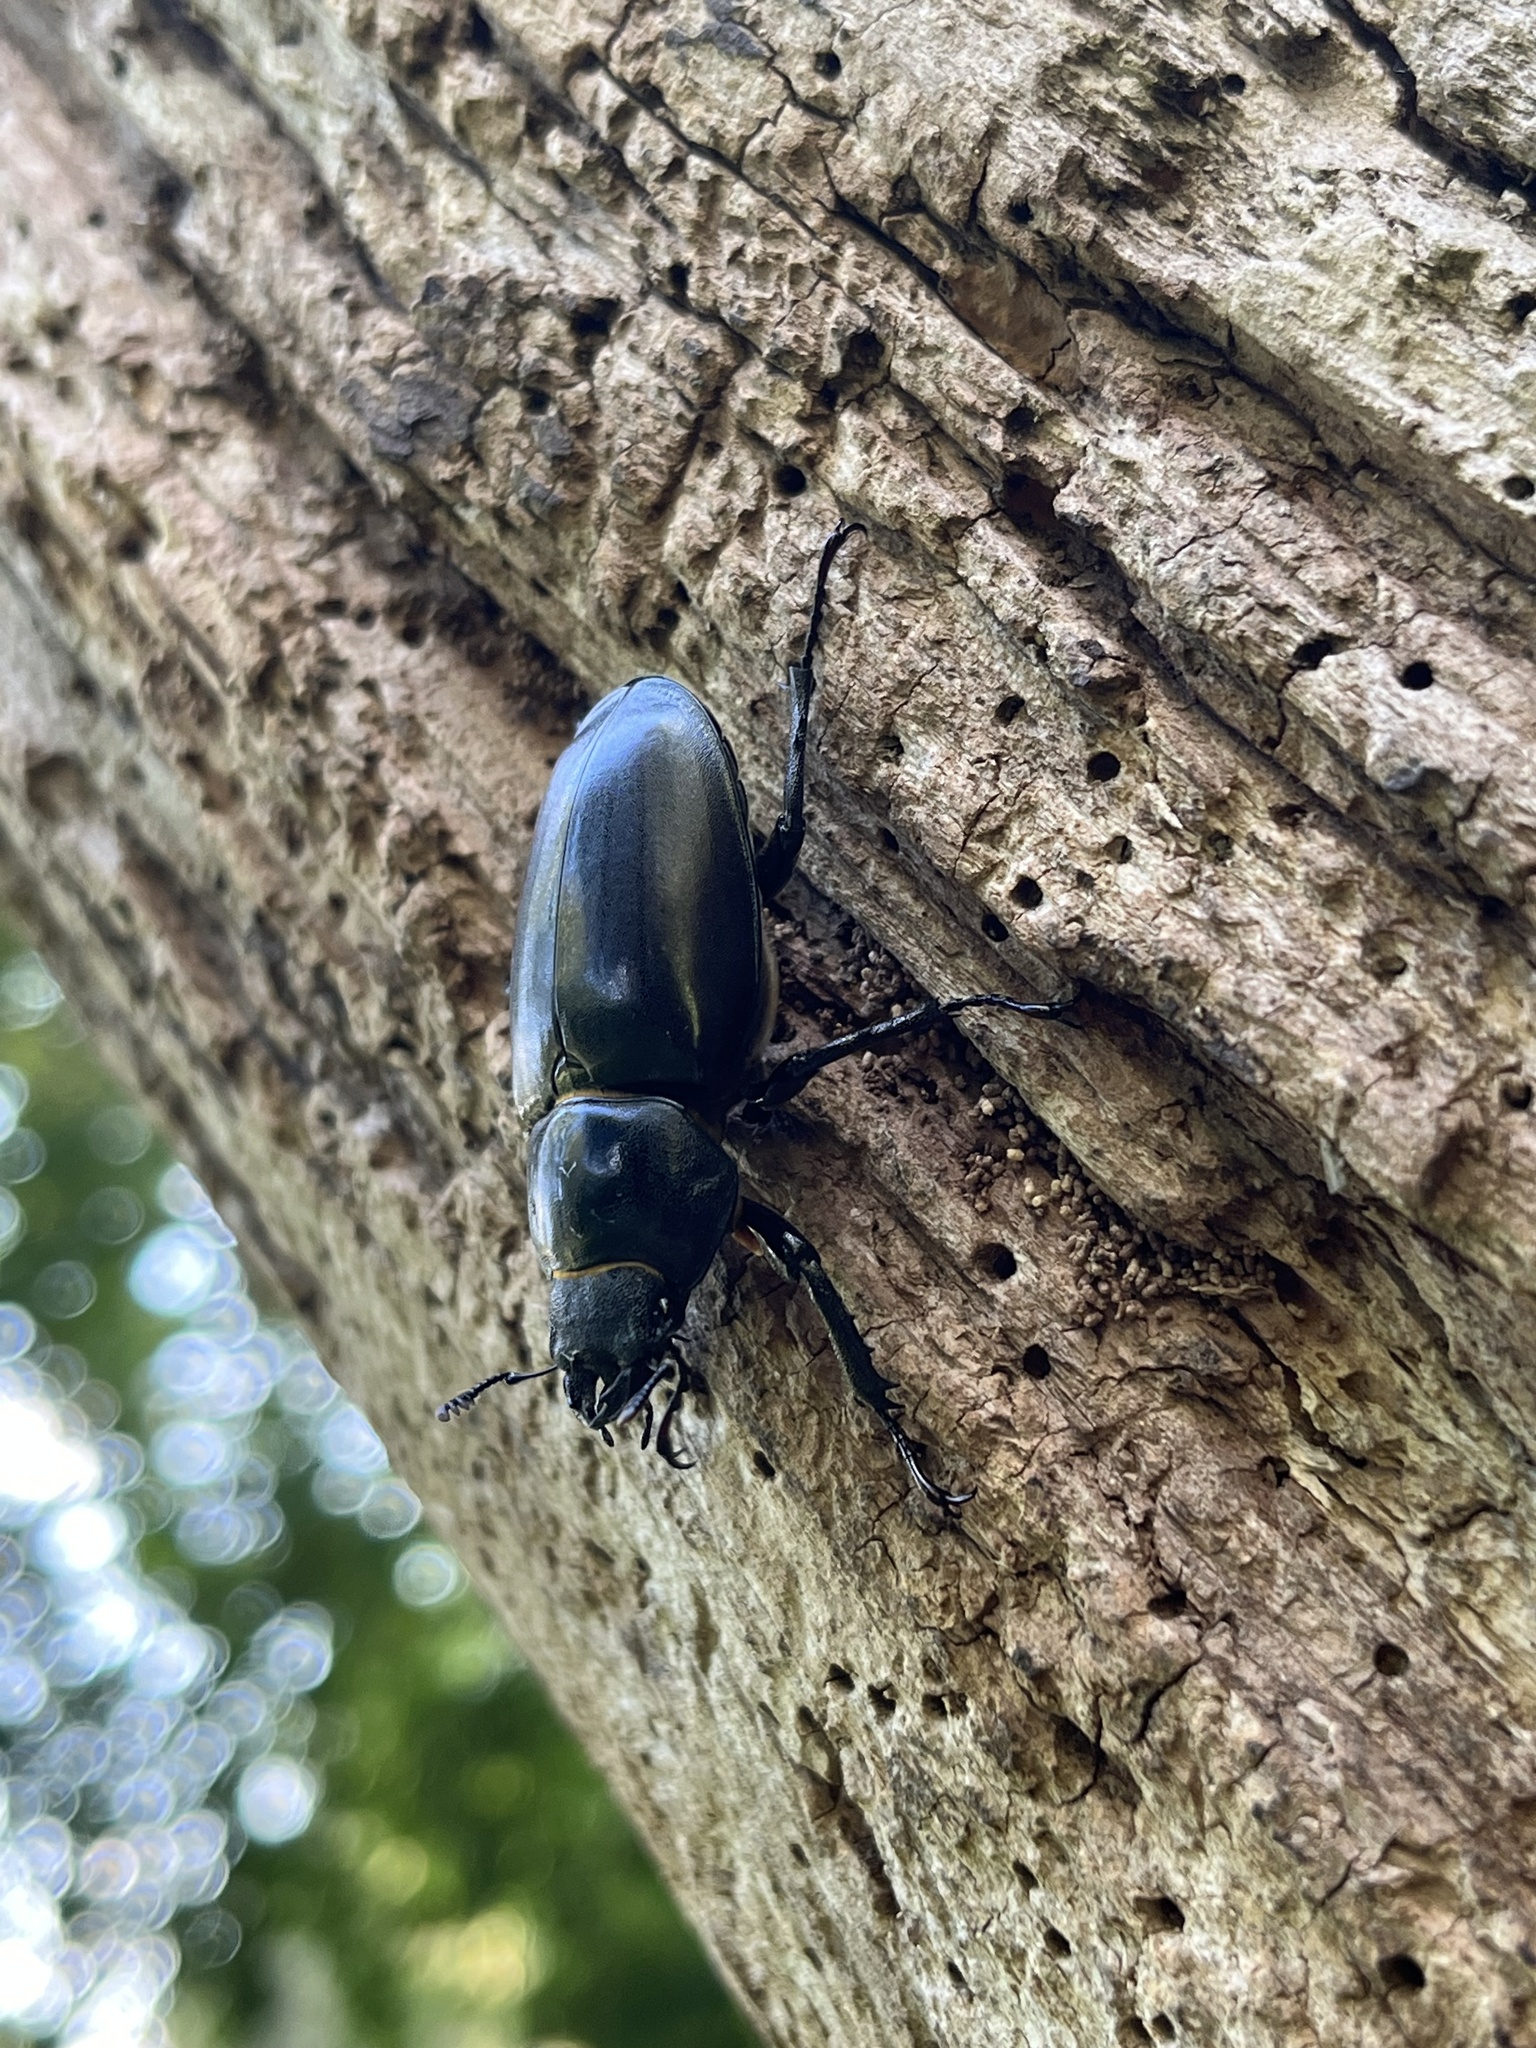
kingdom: Animalia
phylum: Arthropoda
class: Insecta
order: Coleoptera
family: Lucanidae
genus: Lucanus
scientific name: Lucanus cervus
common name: Stag beetle
